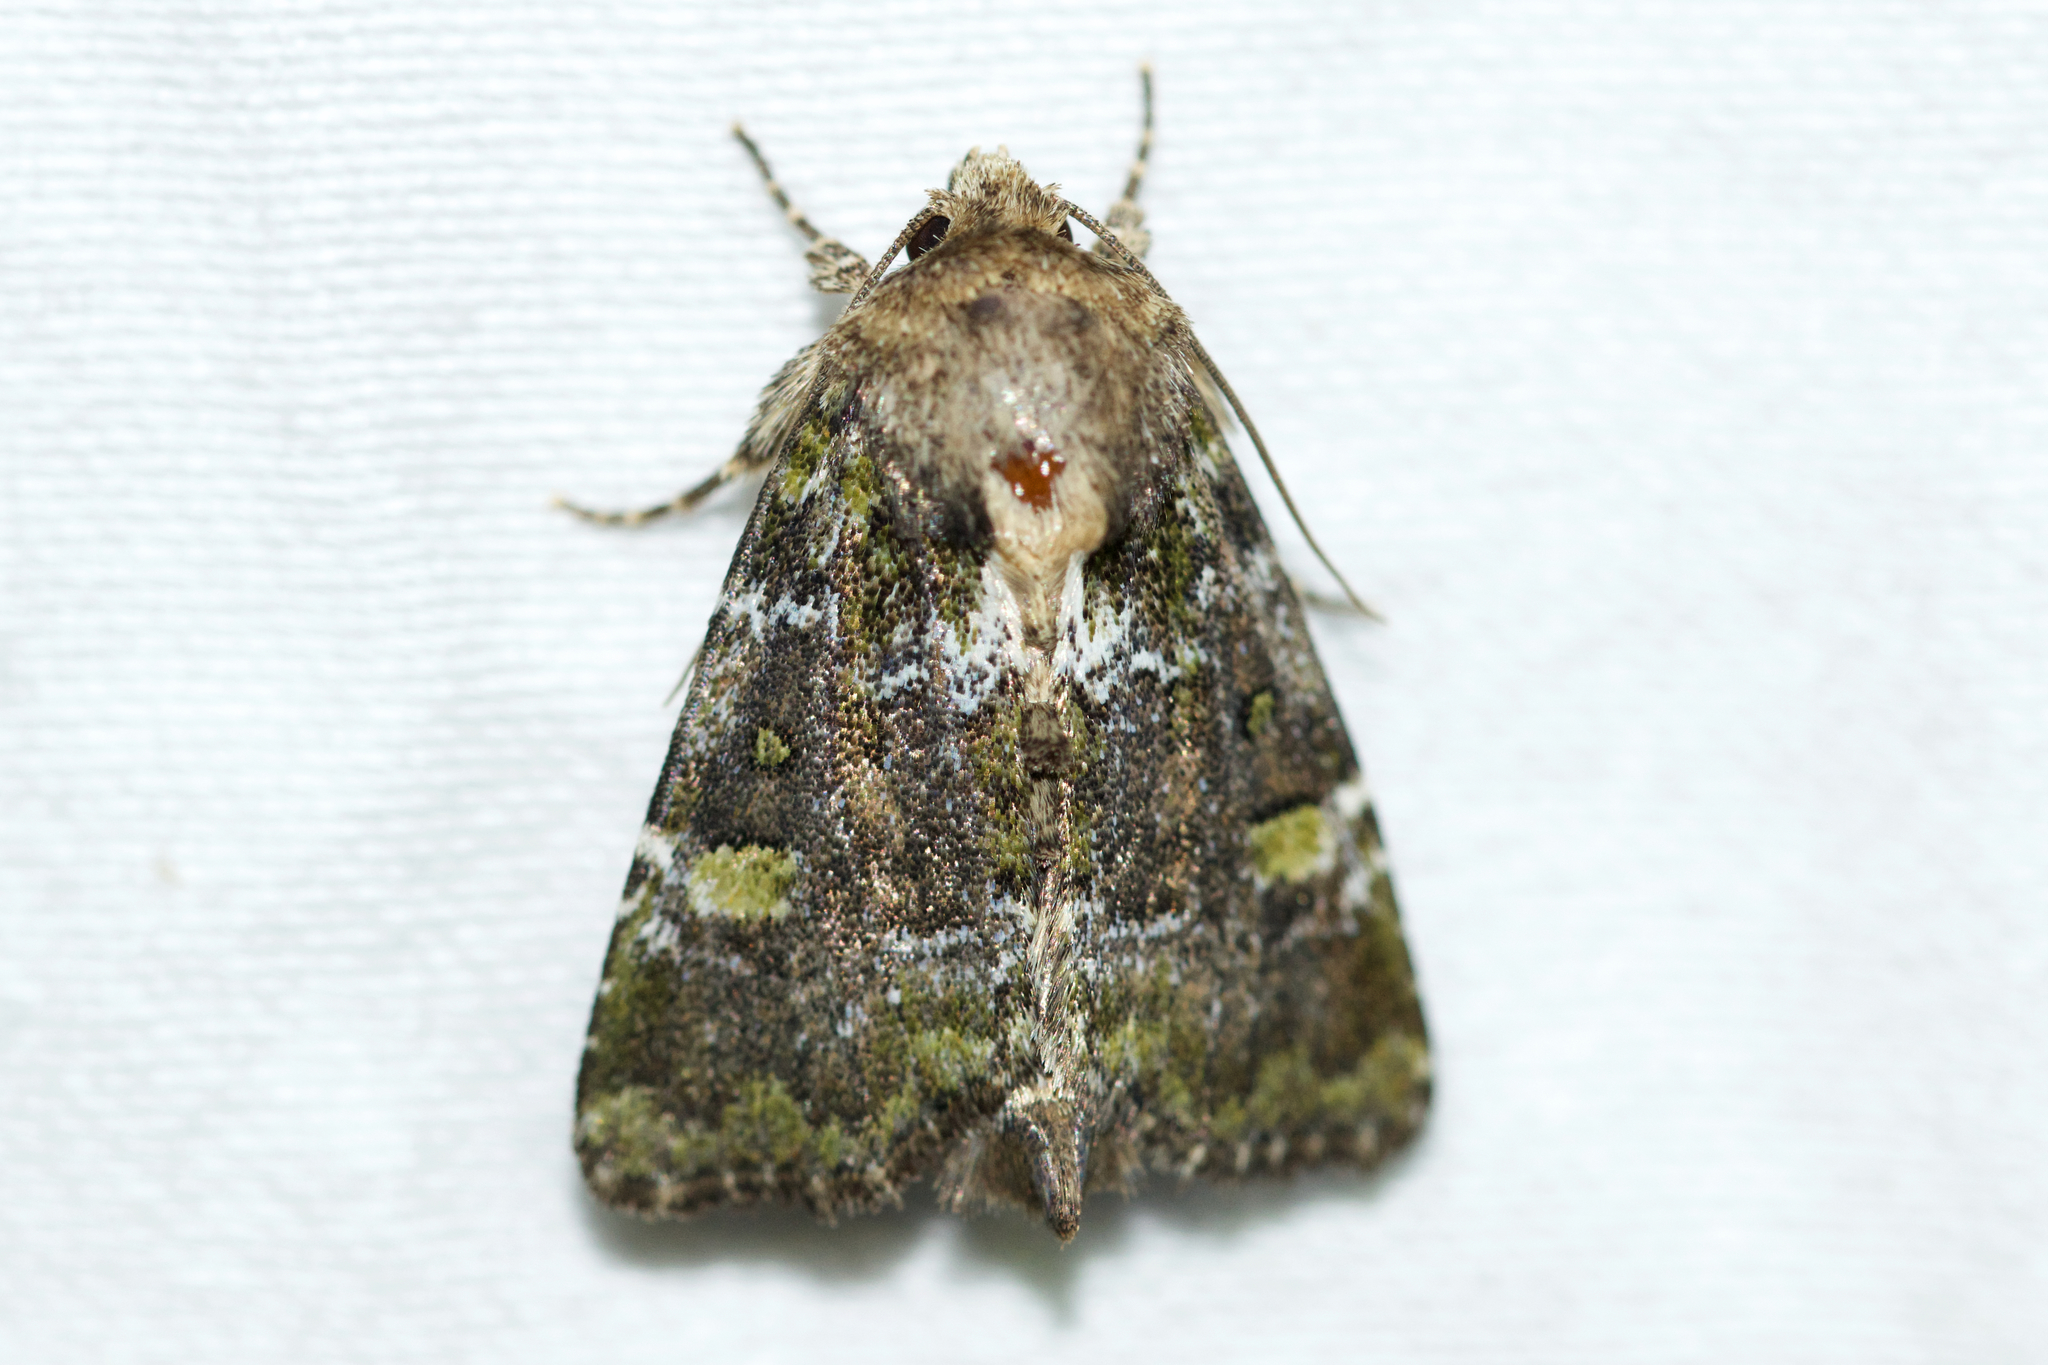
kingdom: Animalia
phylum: Arthropoda
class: Insecta
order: Lepidoptera
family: Noctuidae
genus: Oligia
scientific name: Oligia chlorostigma
